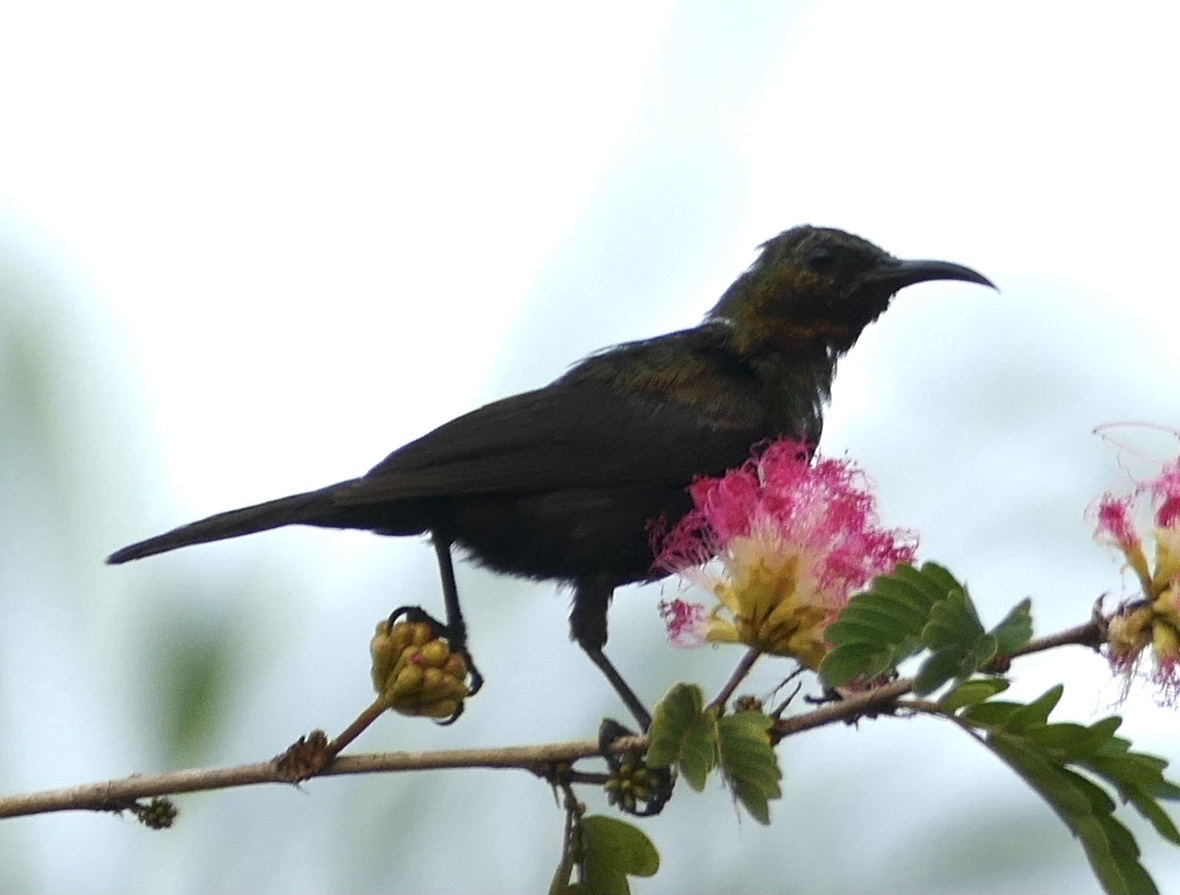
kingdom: Animalia
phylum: Chordata
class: Aves
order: Passeriformes
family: Nectariniidae
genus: Cinnyris
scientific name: Cinnyris cupreus
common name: Copper sunbird
